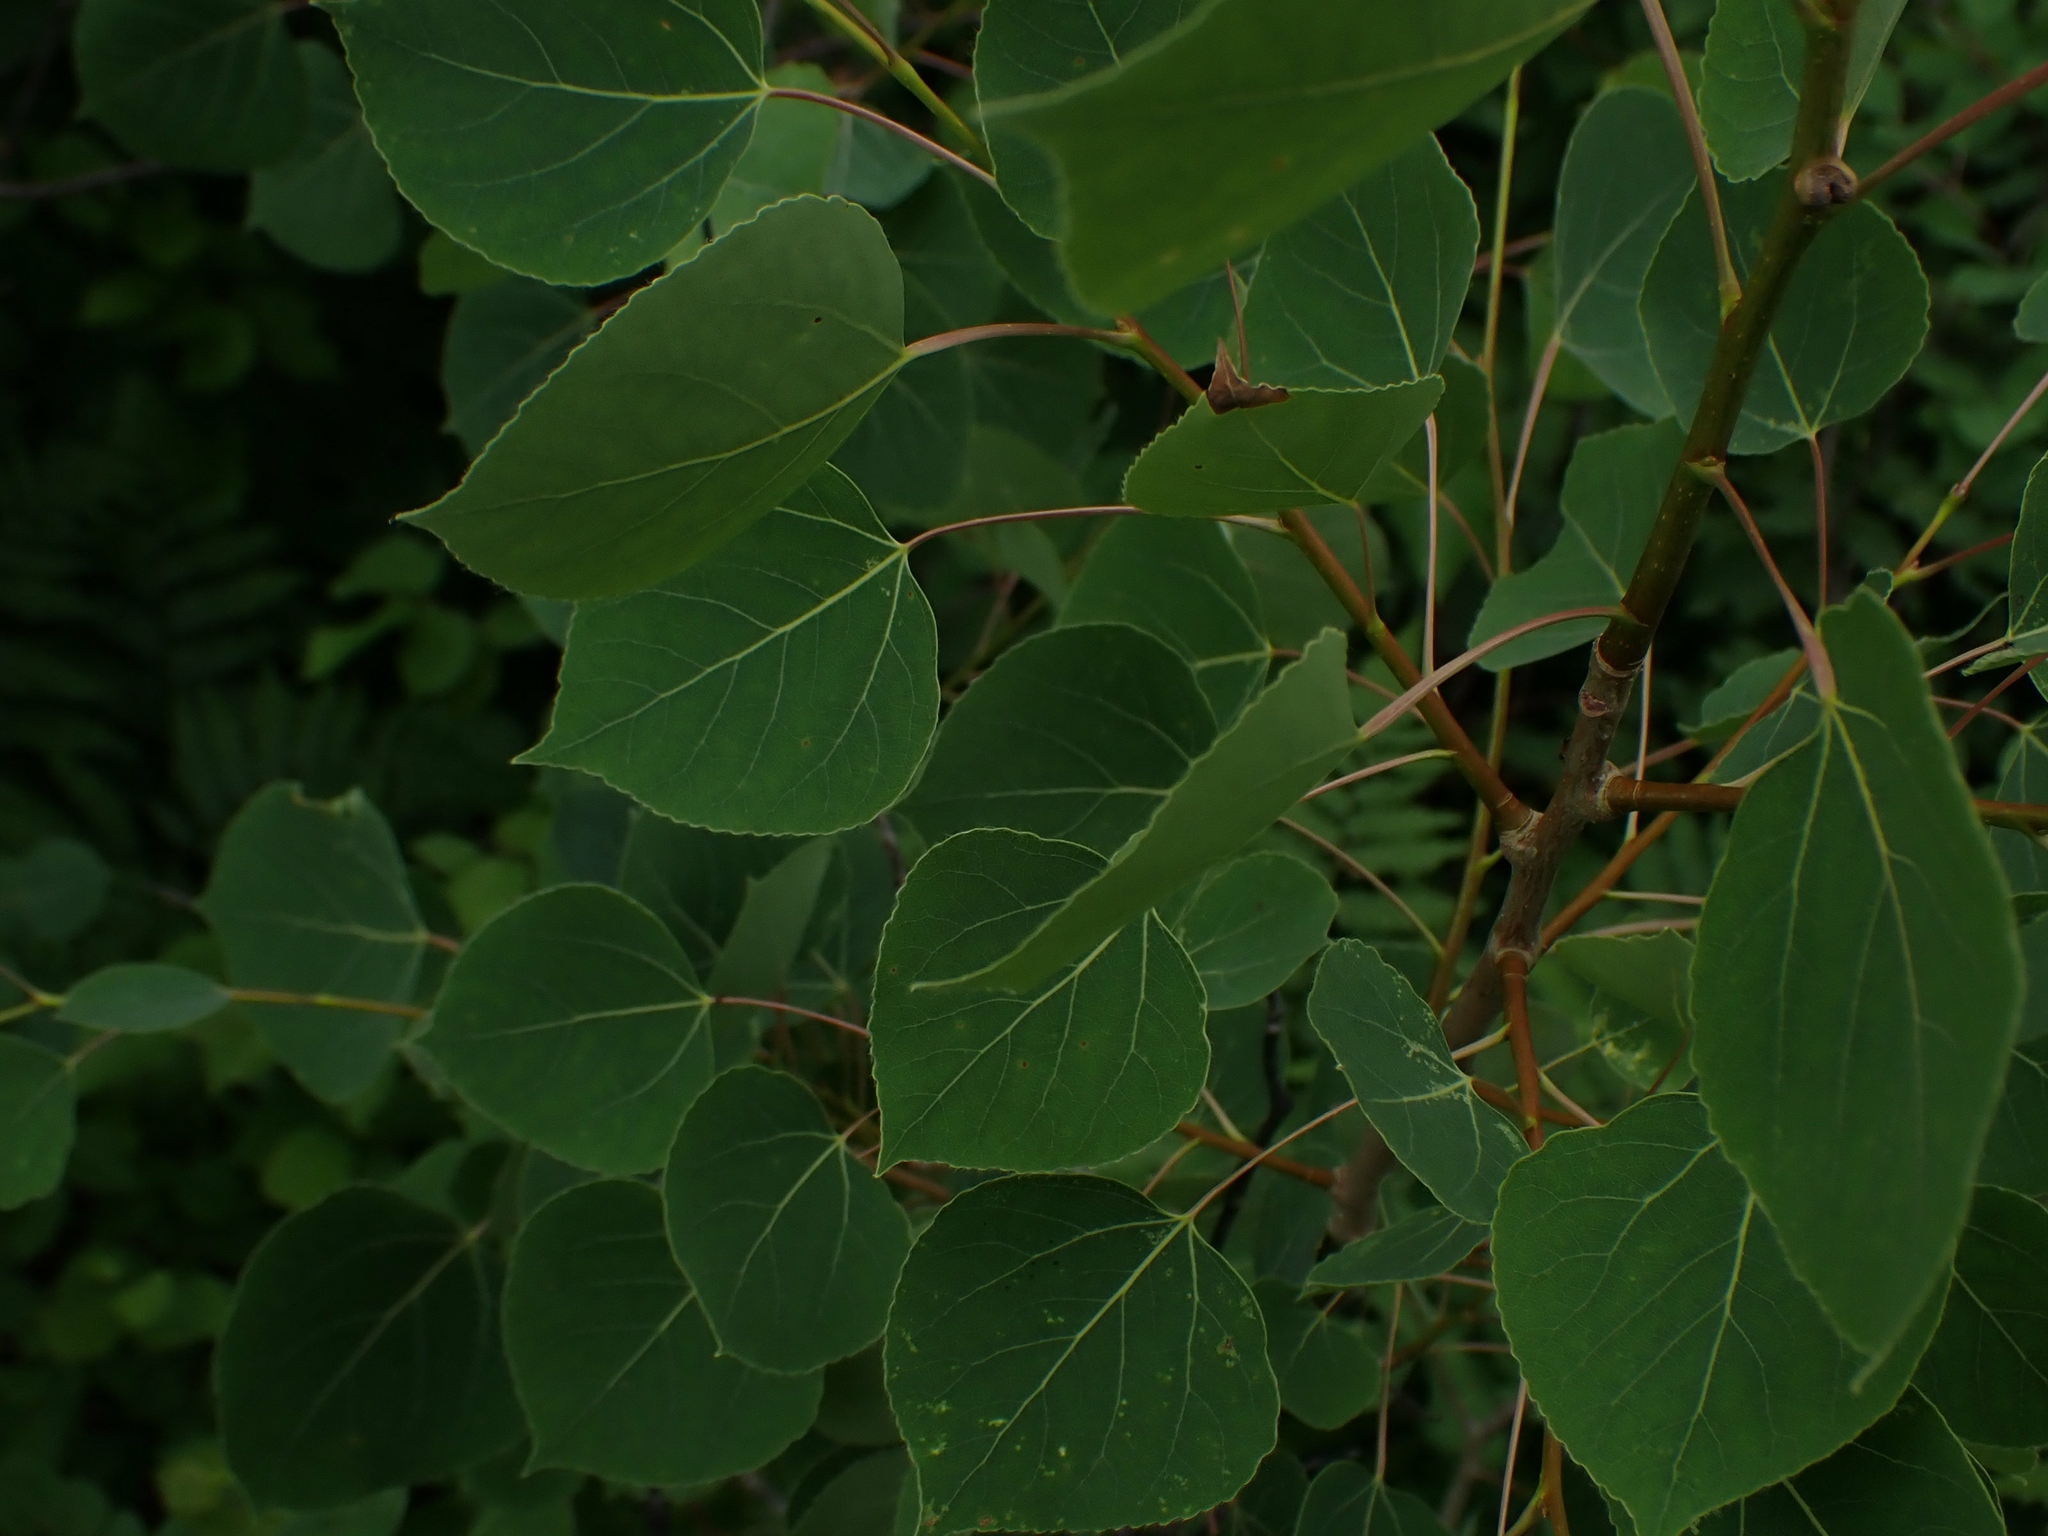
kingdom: Plantae
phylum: Tracheophyta
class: Magnoliopsida
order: Malpighiales
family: Salicaceae
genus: Populus
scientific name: Populus tremuloides
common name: Quaking aspen
